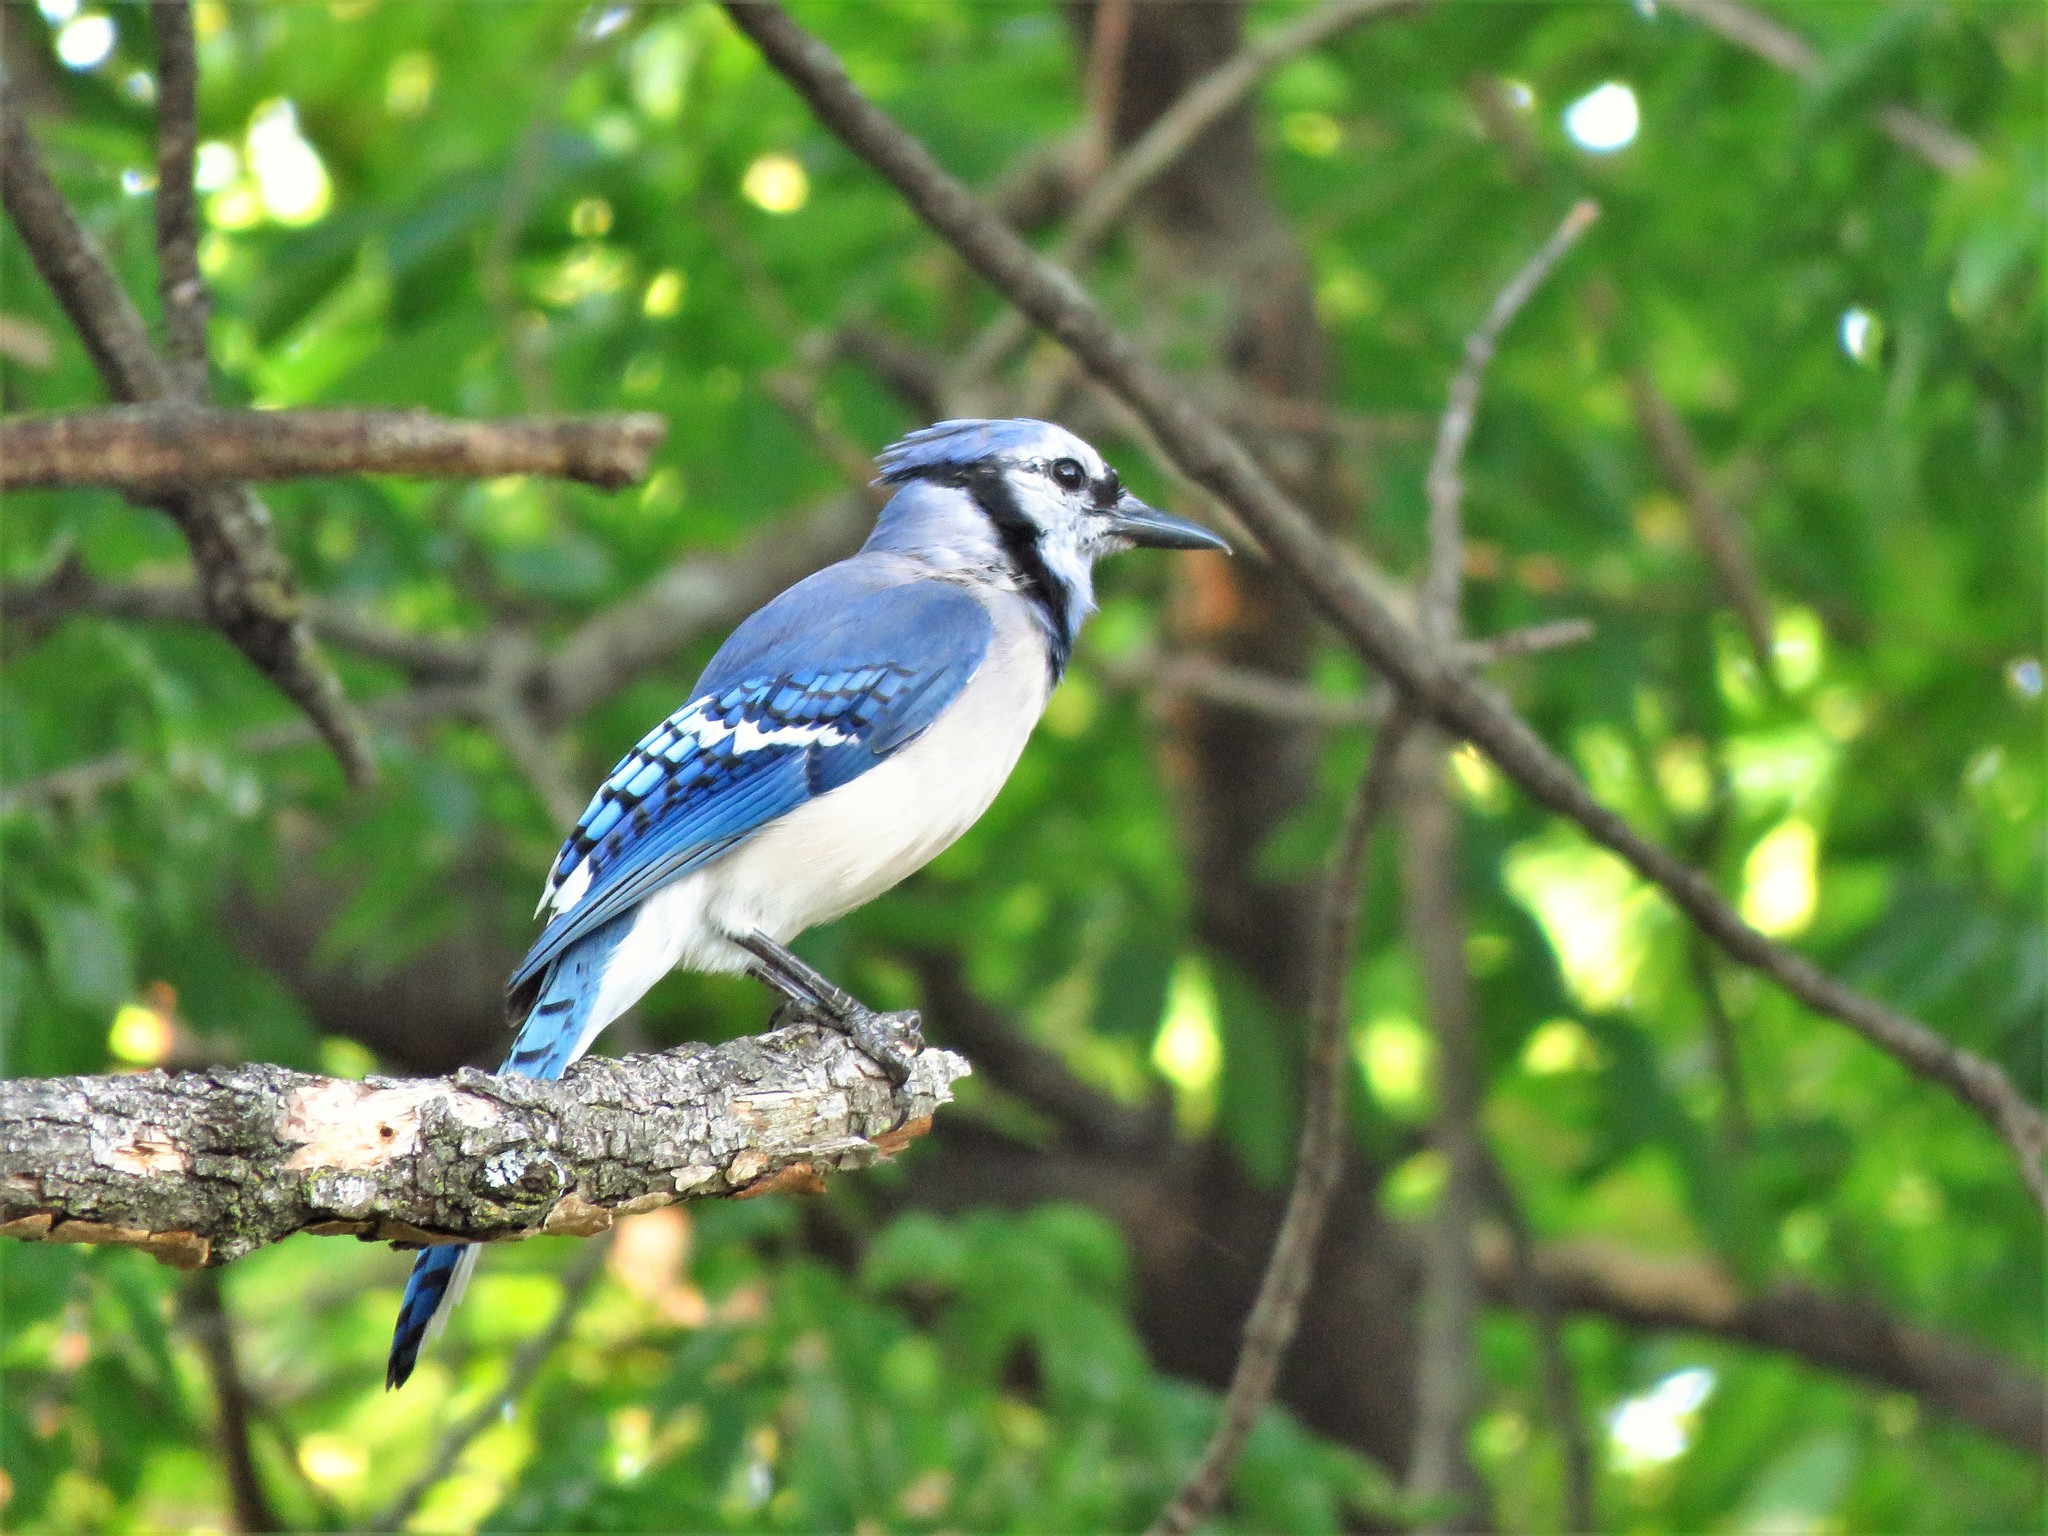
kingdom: Animalia
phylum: Chordata
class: Aves
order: Passeriformes
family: Corvidae
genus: Cyanocitta
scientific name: Cyanocitta cristata
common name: Blue jay
